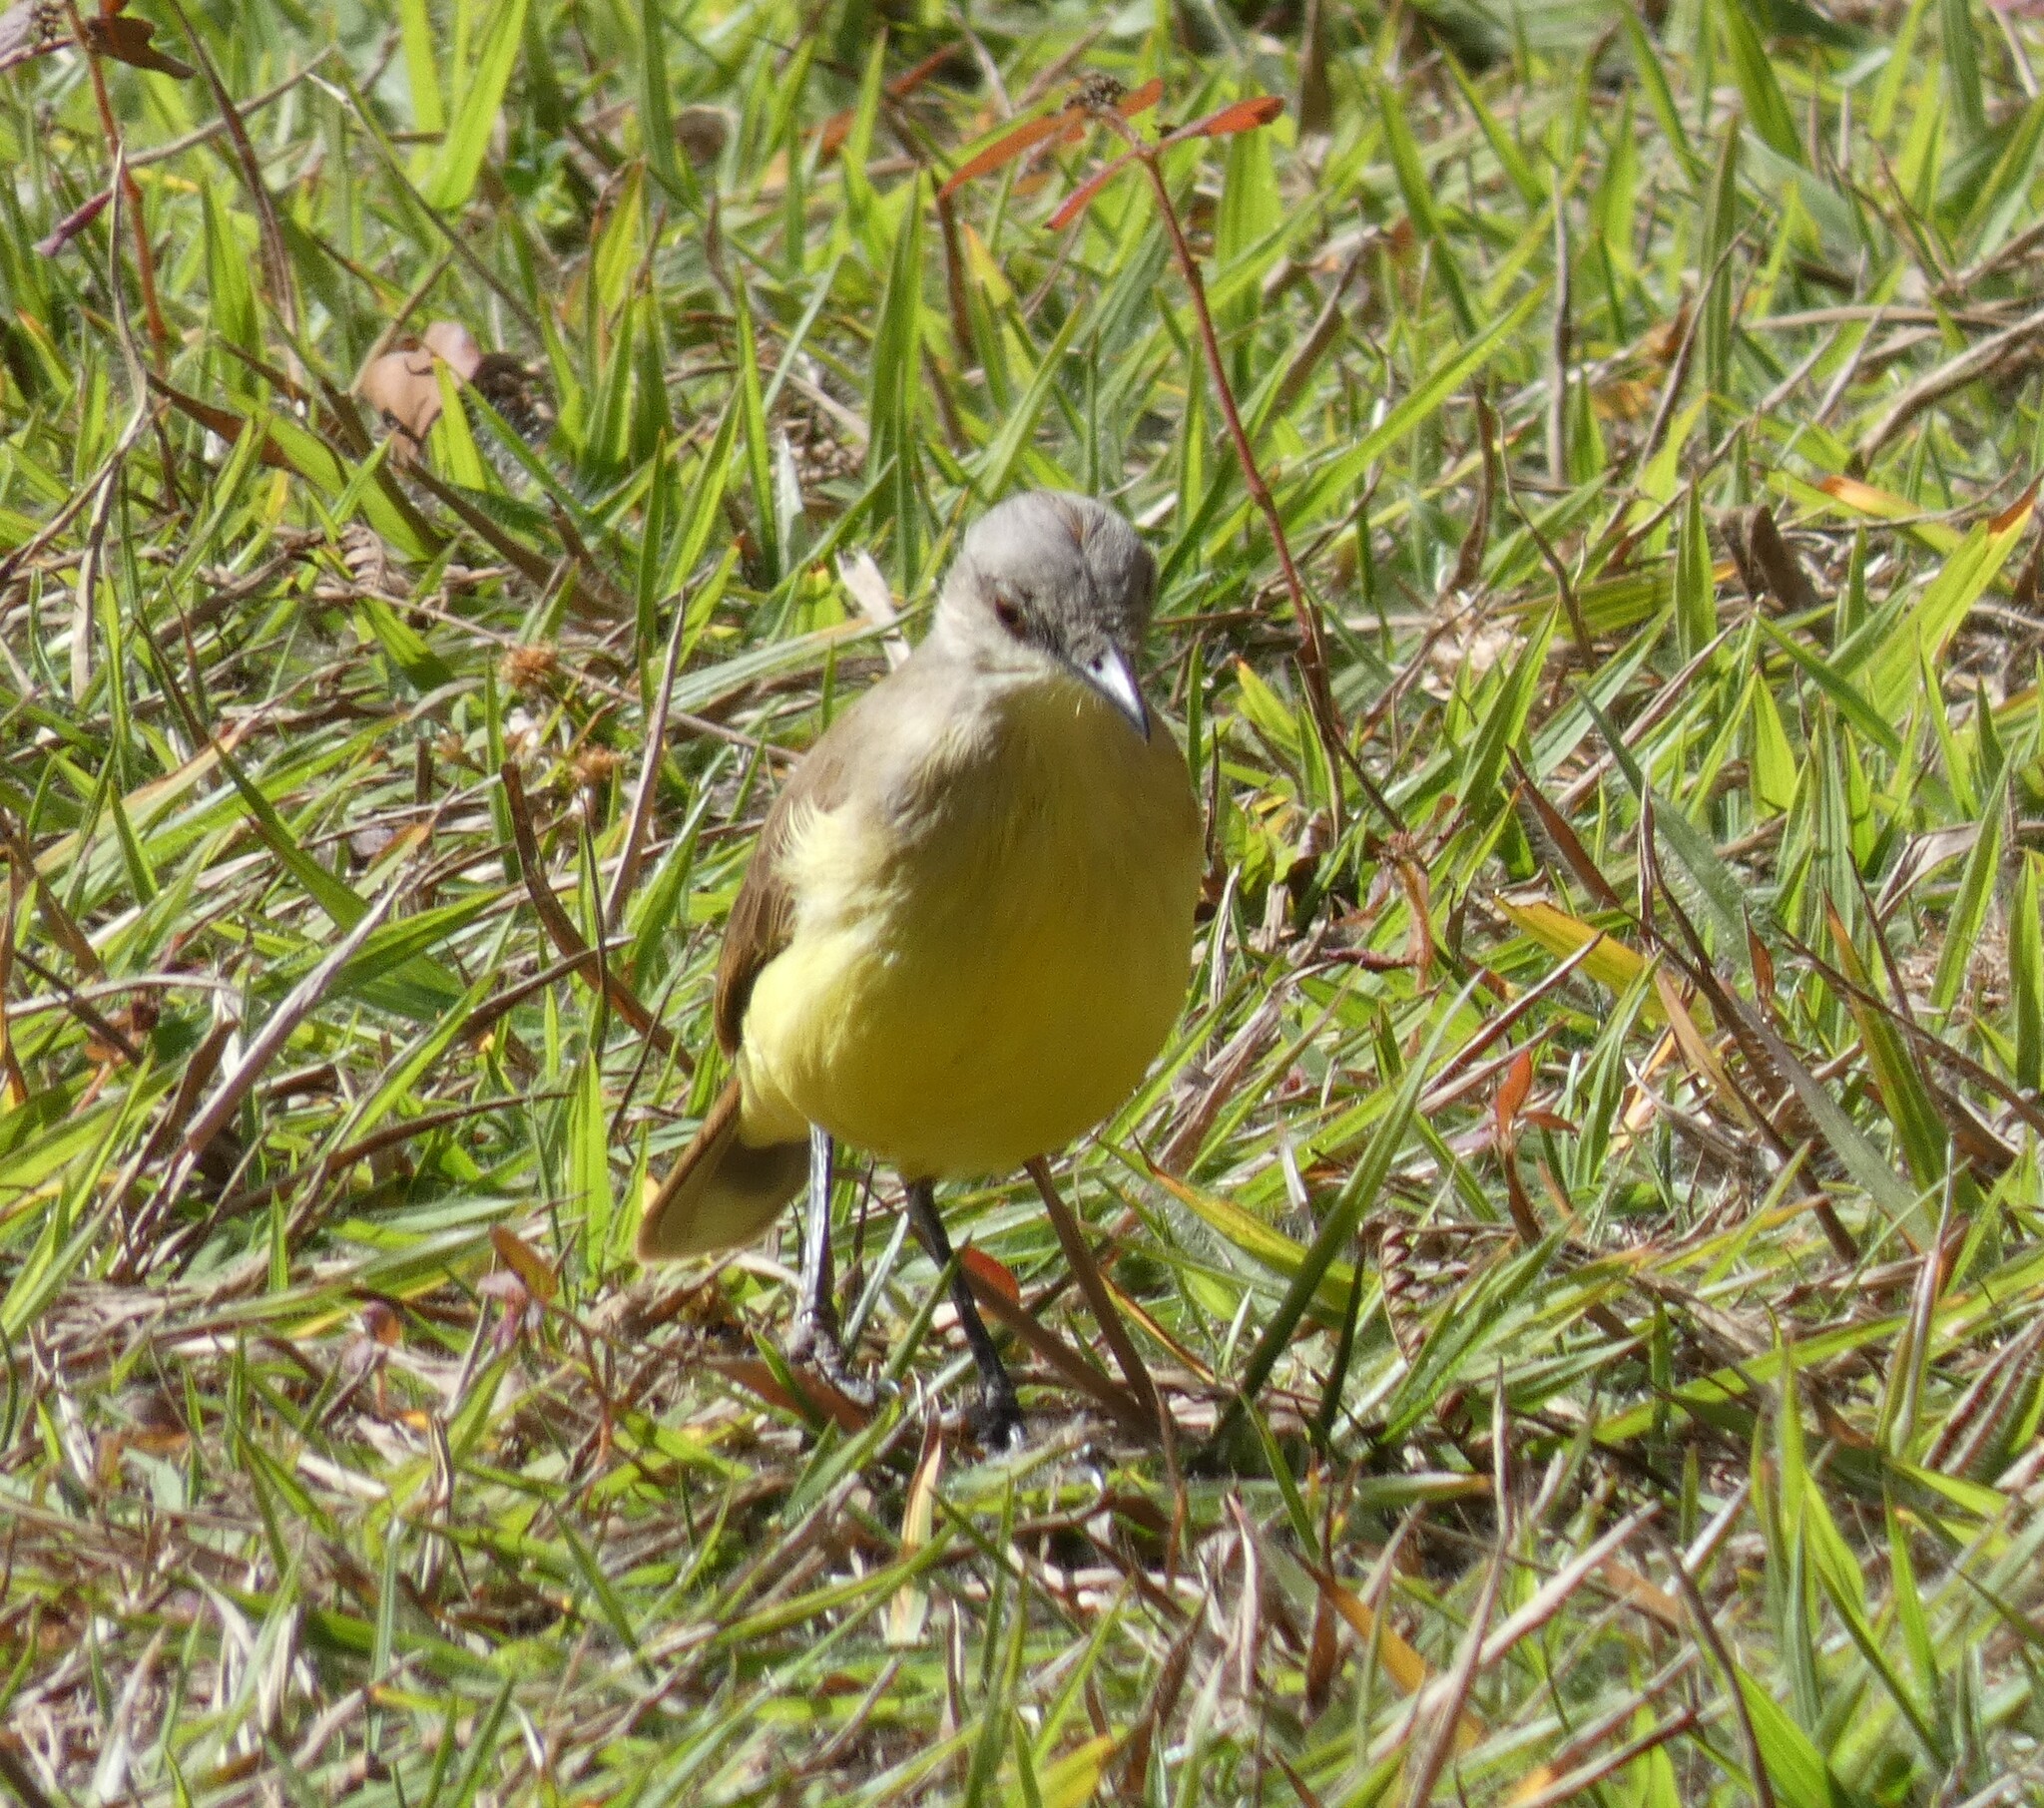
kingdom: Animalia
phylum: Chordata
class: Aves
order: Passeriformes
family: Tyrannidae
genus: Machetornis
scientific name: Machetornis rixosa
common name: Cattle tyrant
